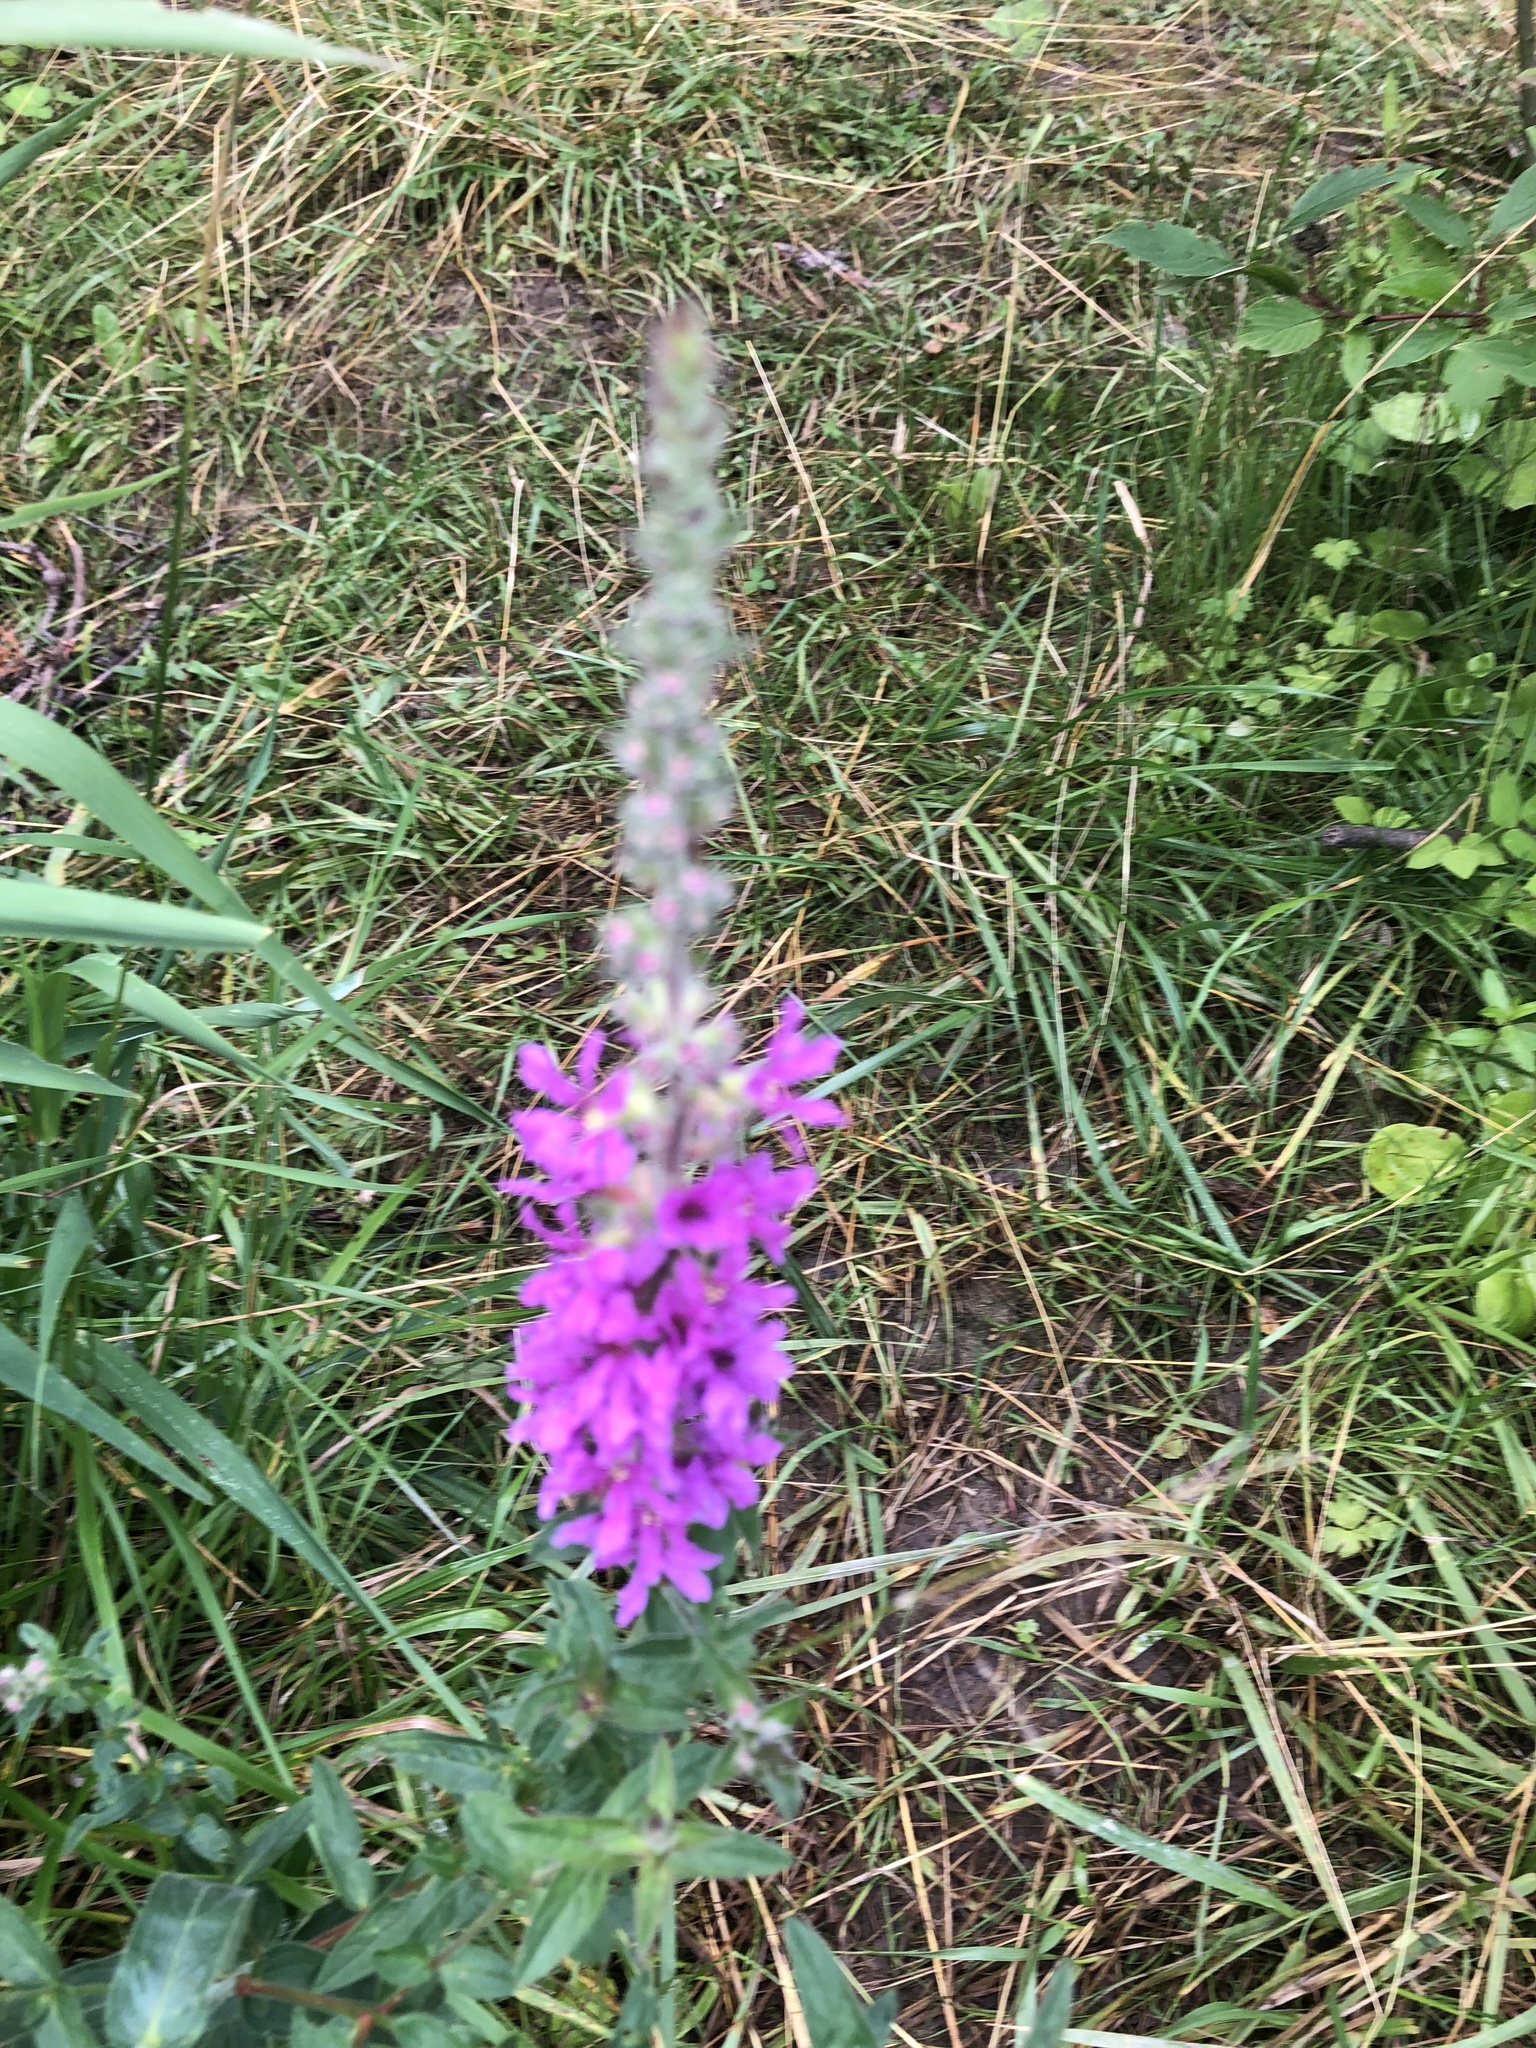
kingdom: Plantae
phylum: Tracheophyta
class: Magnoliopsida
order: Myrtales
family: Lythraceae
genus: Lythrum
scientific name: Lythrum salicaria
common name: Purple loosestrife
